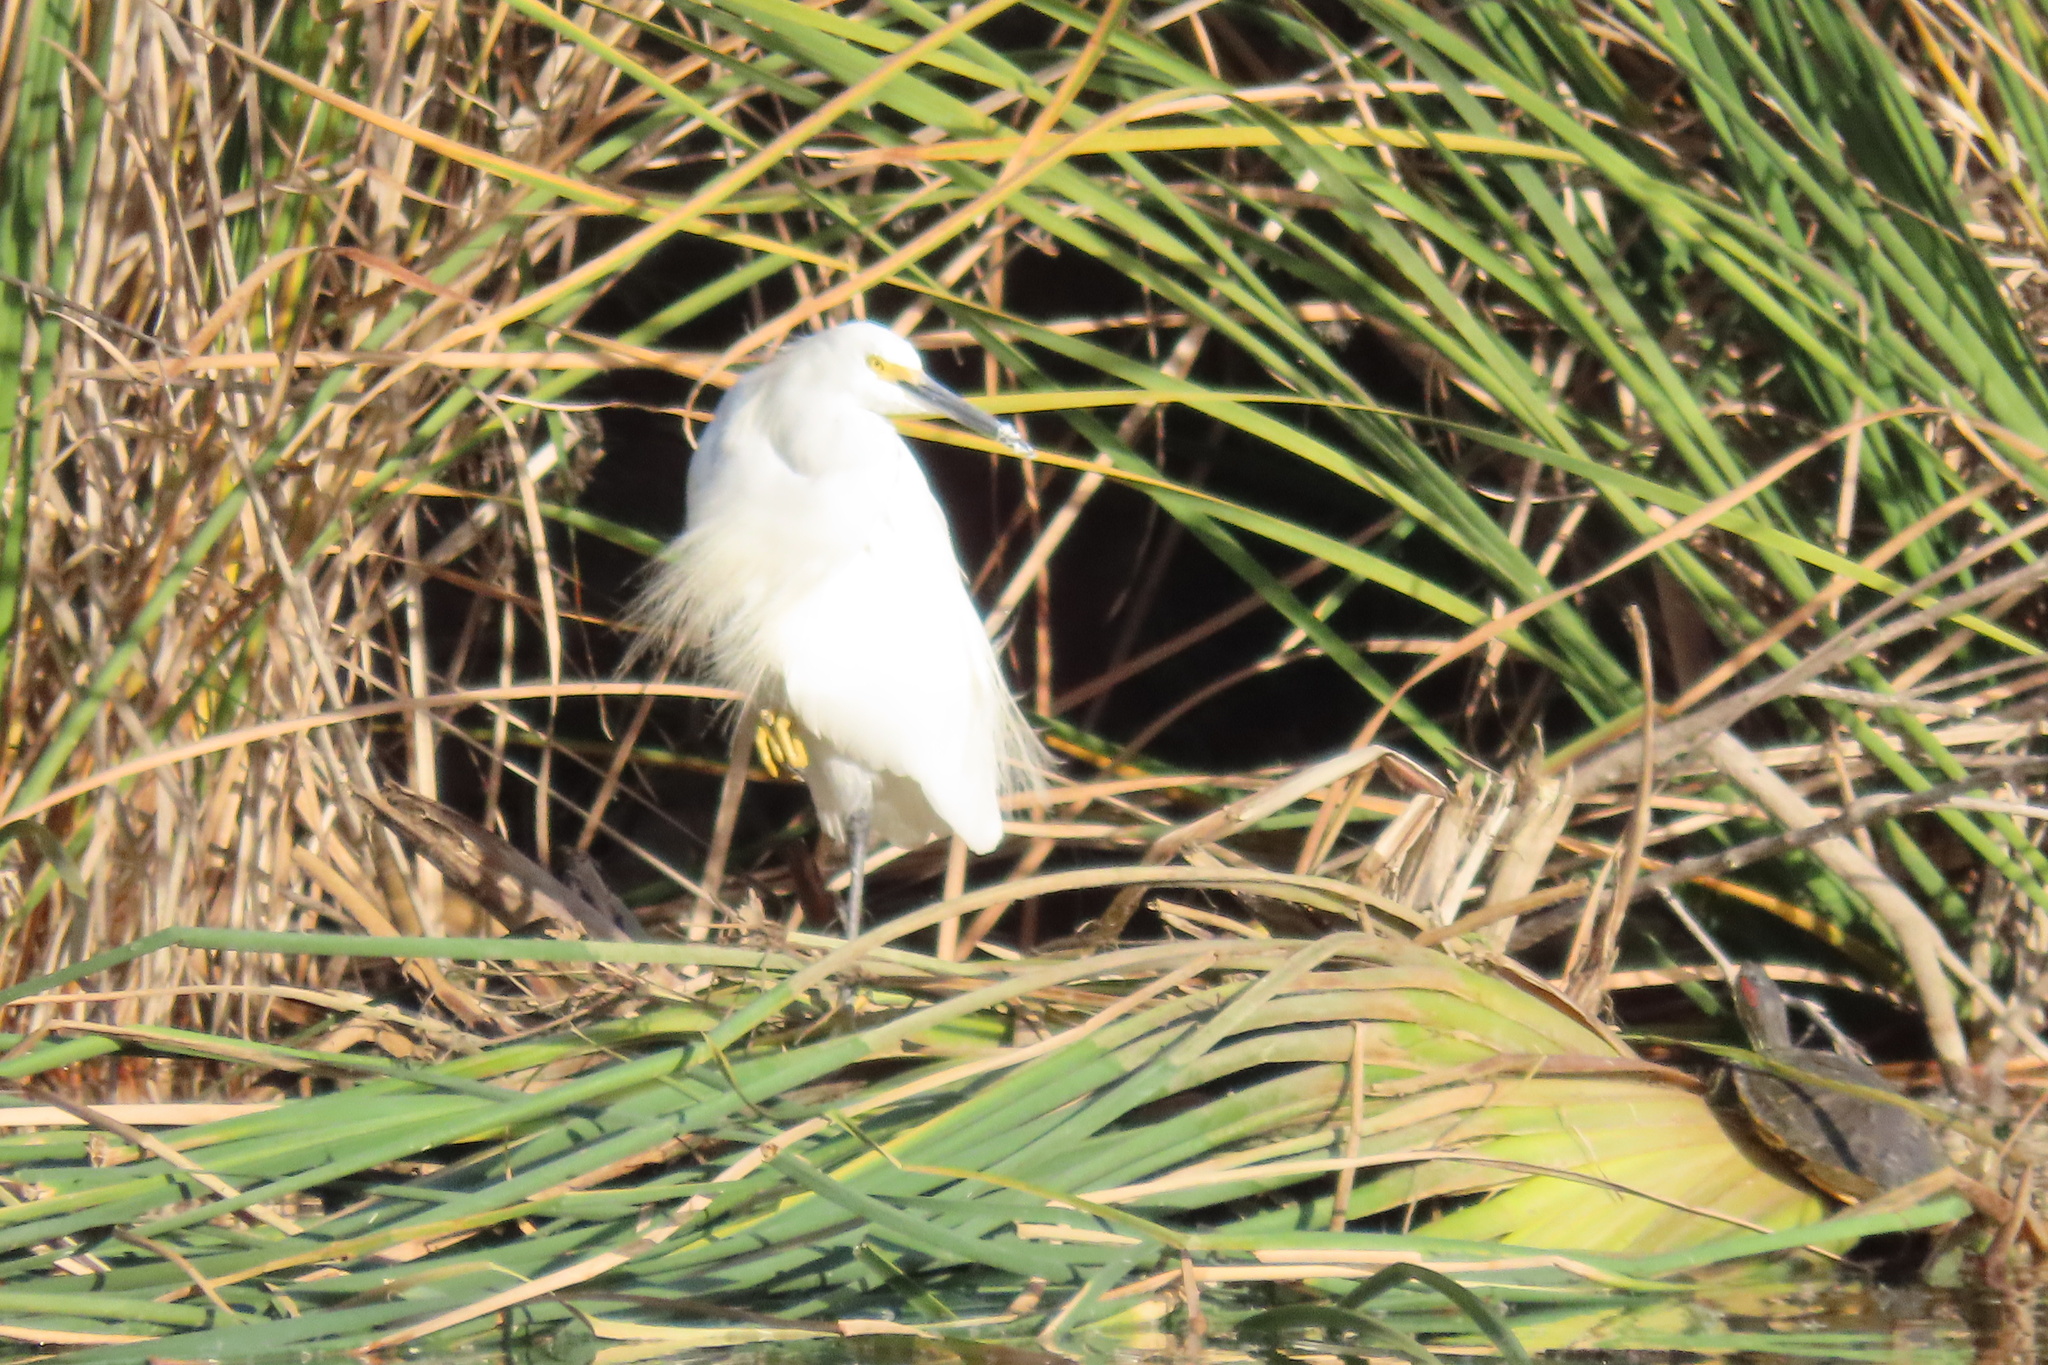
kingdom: Animalia
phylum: Chordata
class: Aves
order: Pelecaniformes
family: Ardeidae
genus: Egretta
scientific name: Egretta thula
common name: Snowy egret
